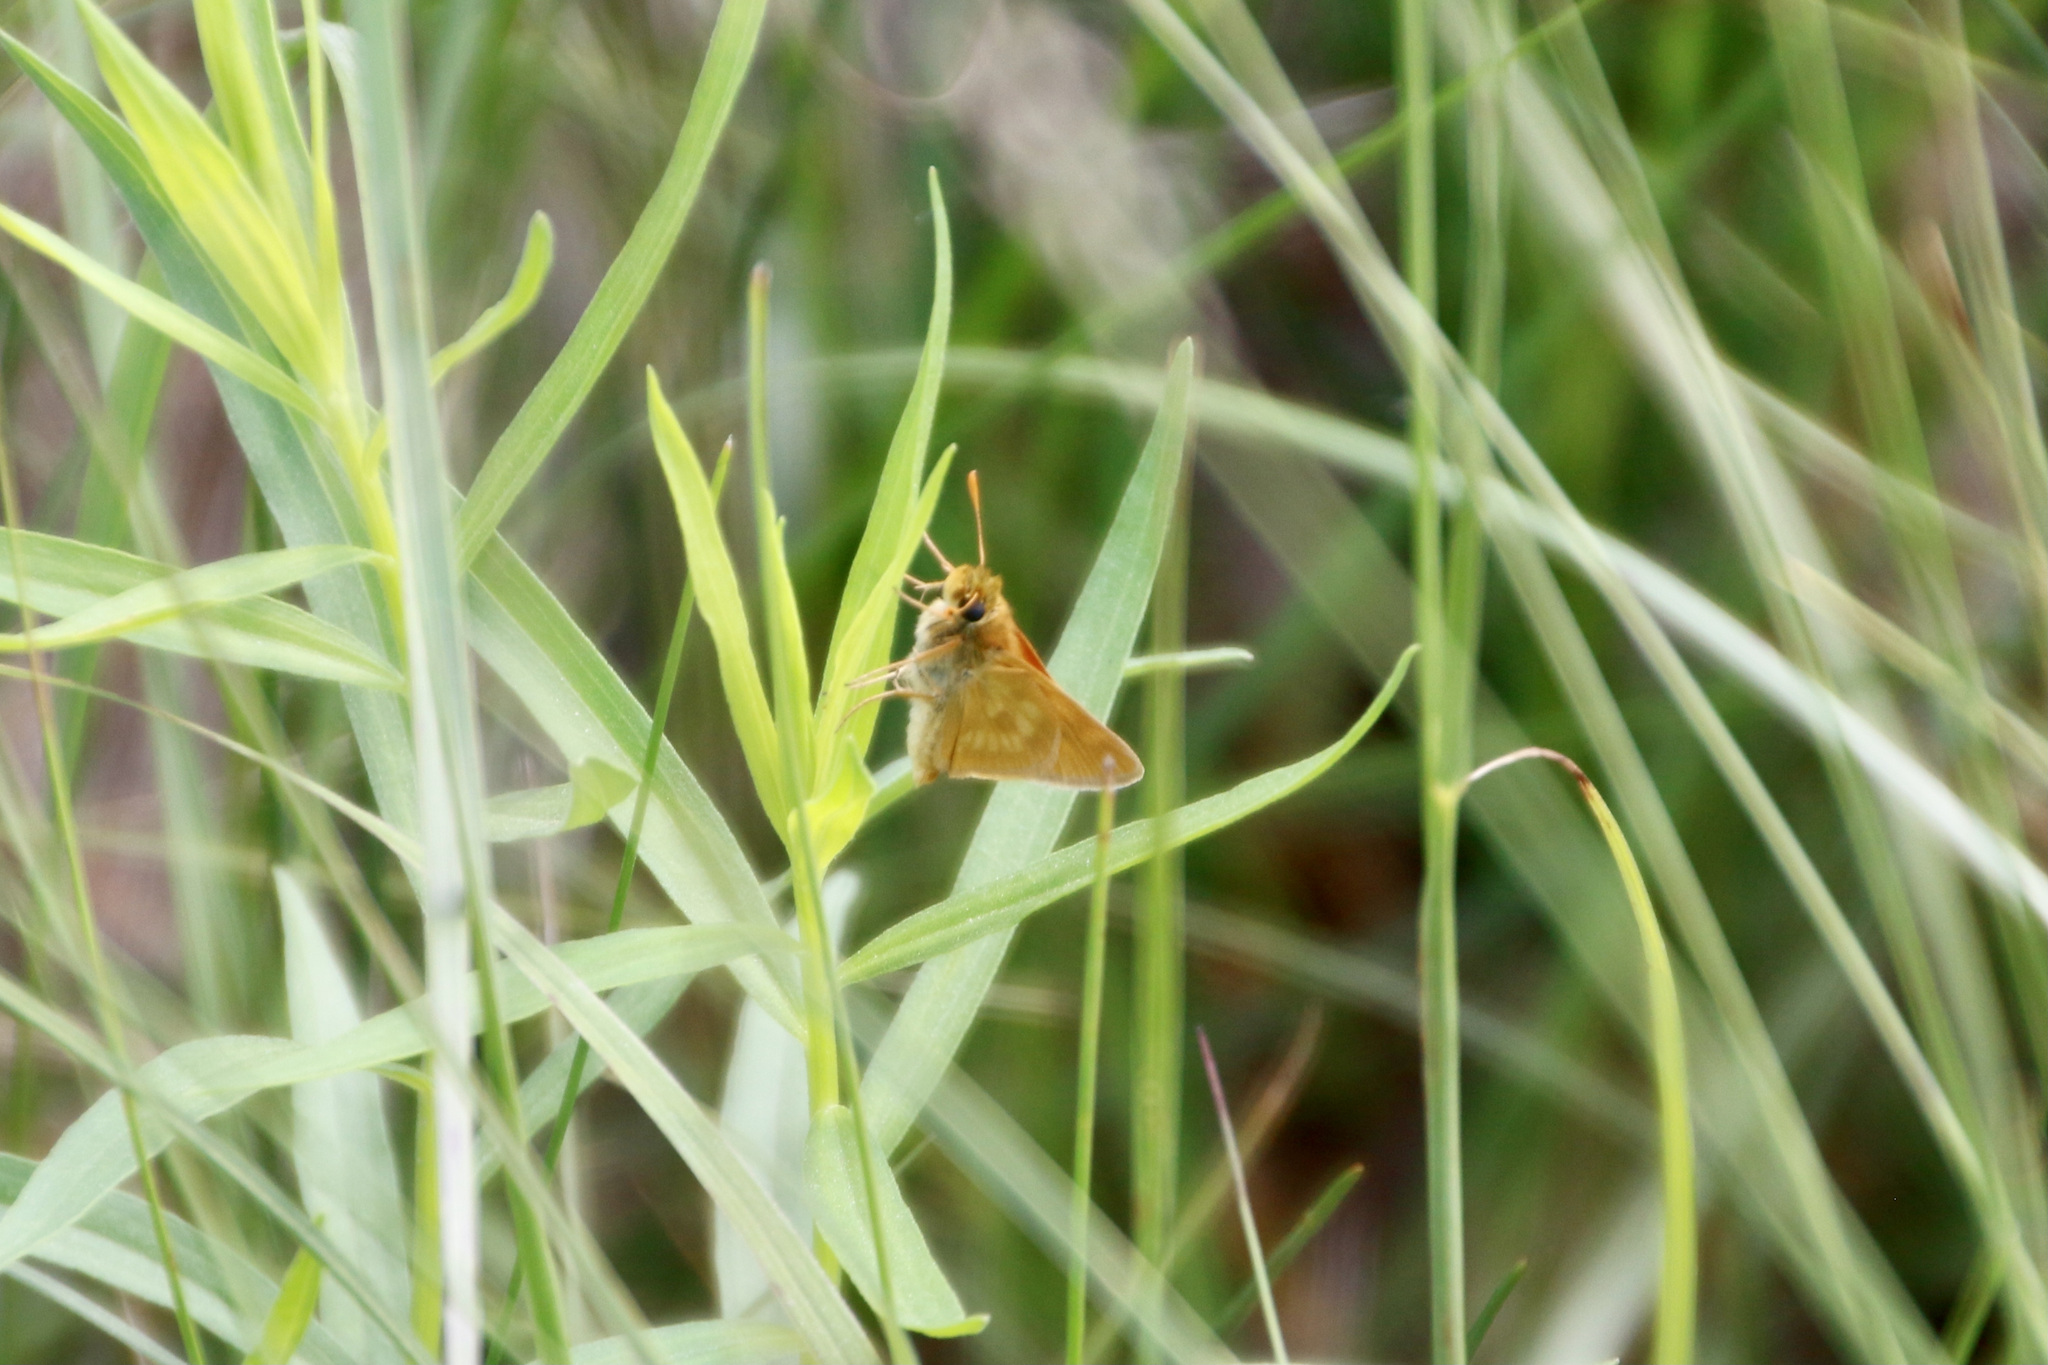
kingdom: Animalia
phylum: Arthropoda
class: Insecta
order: Lepidoptera
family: Hesperiidae
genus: Polites
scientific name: Polites mystic
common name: Long dash
